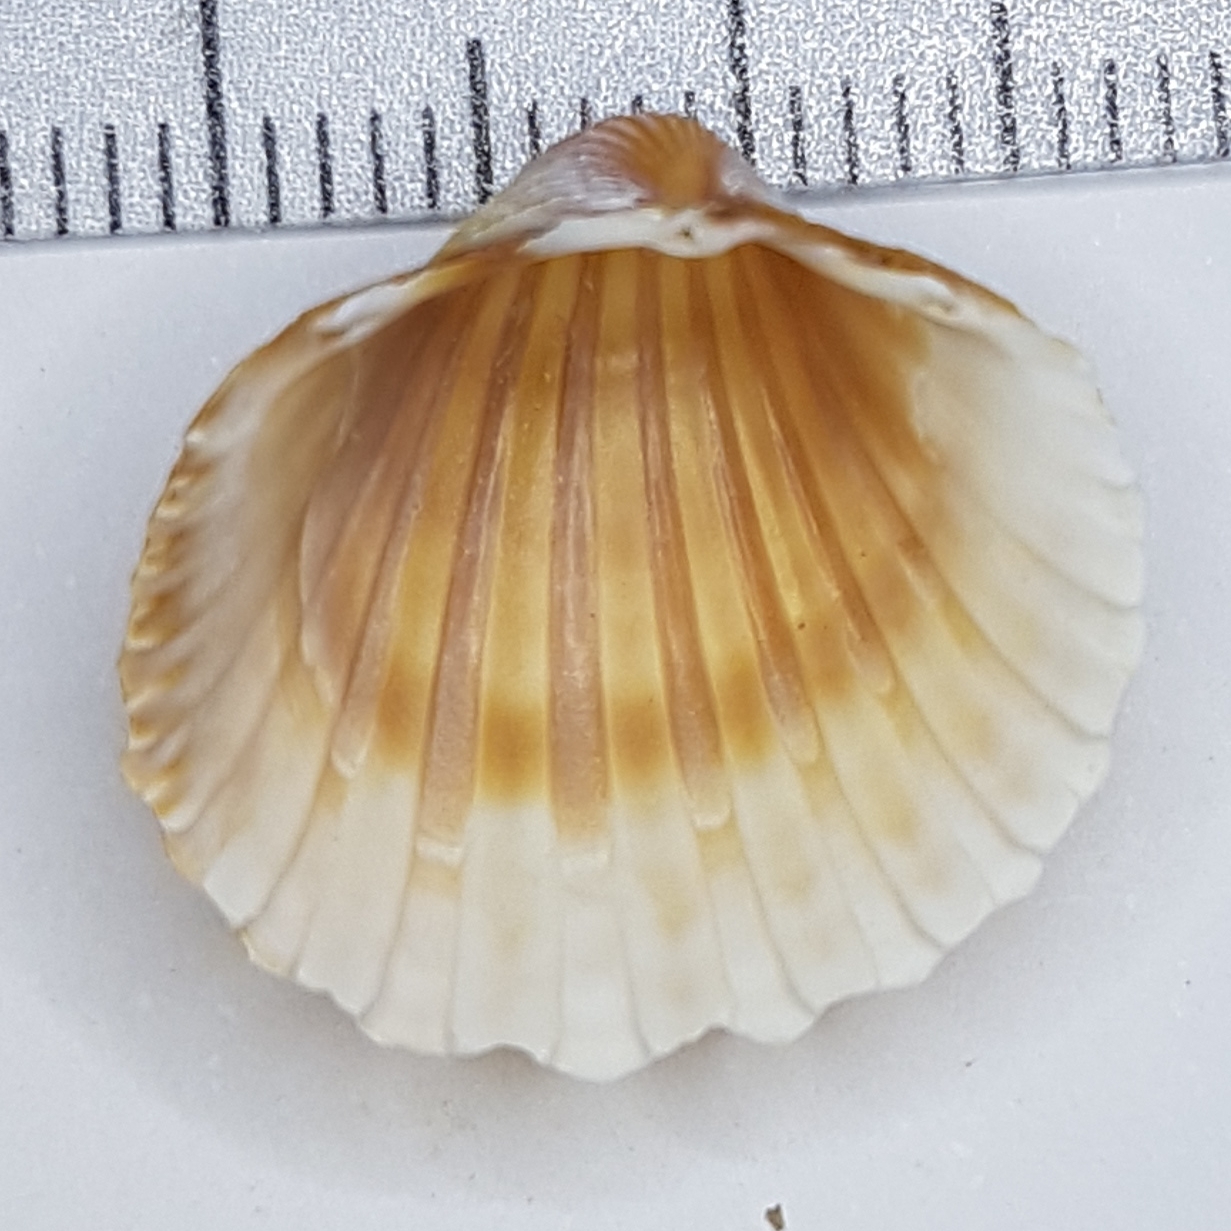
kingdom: Animalia
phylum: Mollusca
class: Bivalvia
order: Cardiida
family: Cardiidae
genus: Acanthocardia
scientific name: Acanthocardia paucicostata
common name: Poorly ribbed cockle
